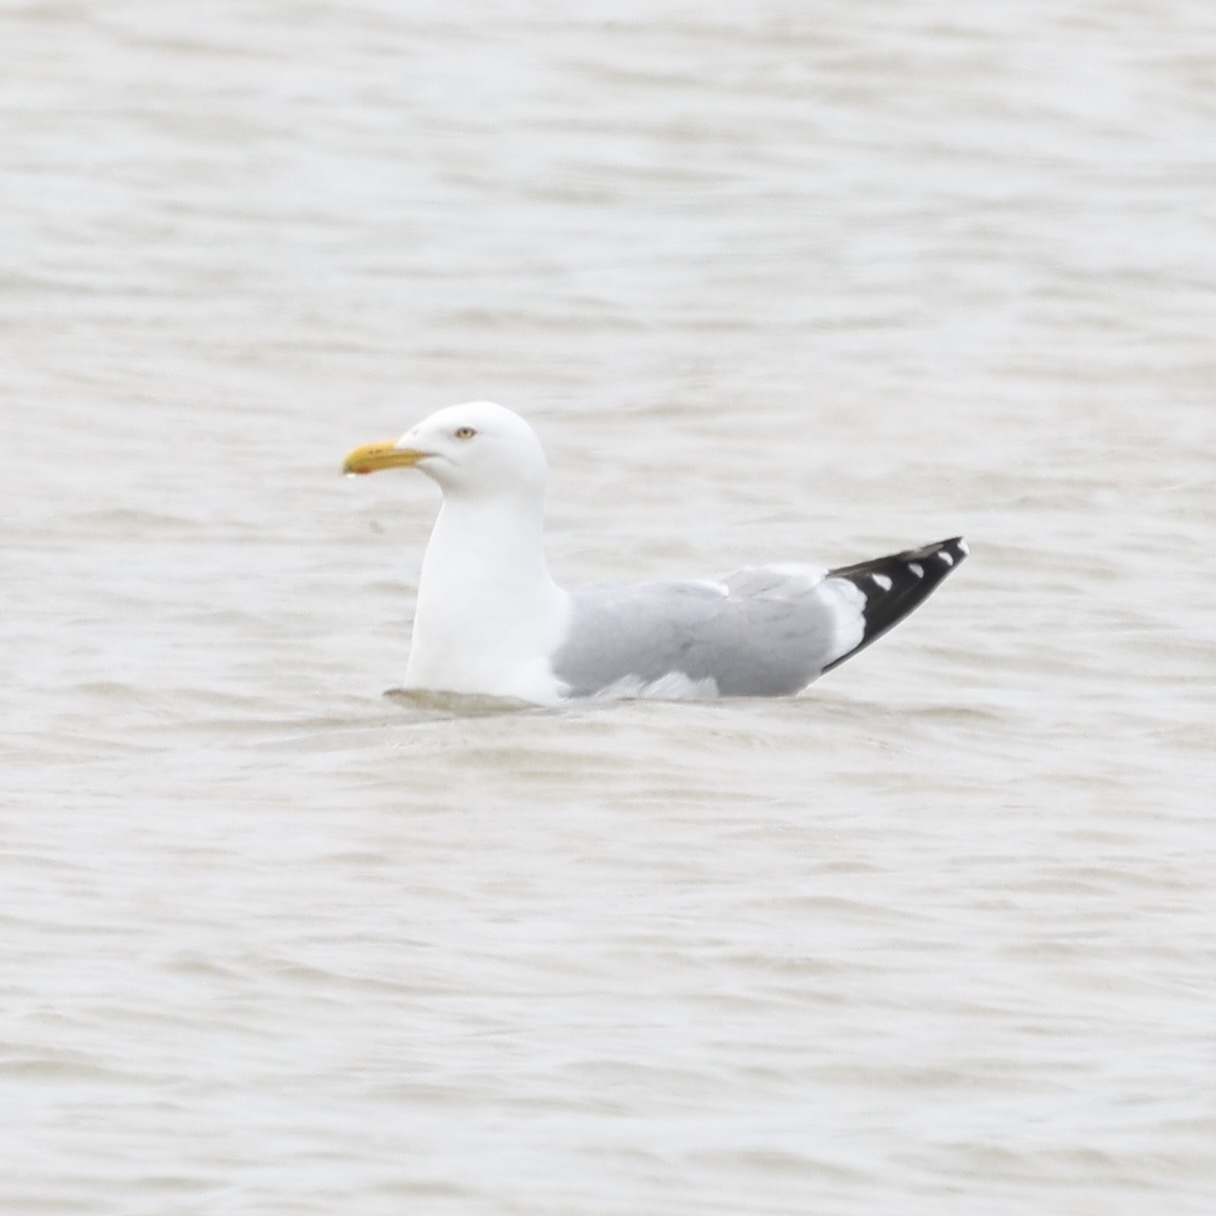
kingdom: Animalia
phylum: Chordata
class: Aves
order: Charadriiformes
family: Laridae
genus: Larus
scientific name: Larus argentatus
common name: Herring gull
